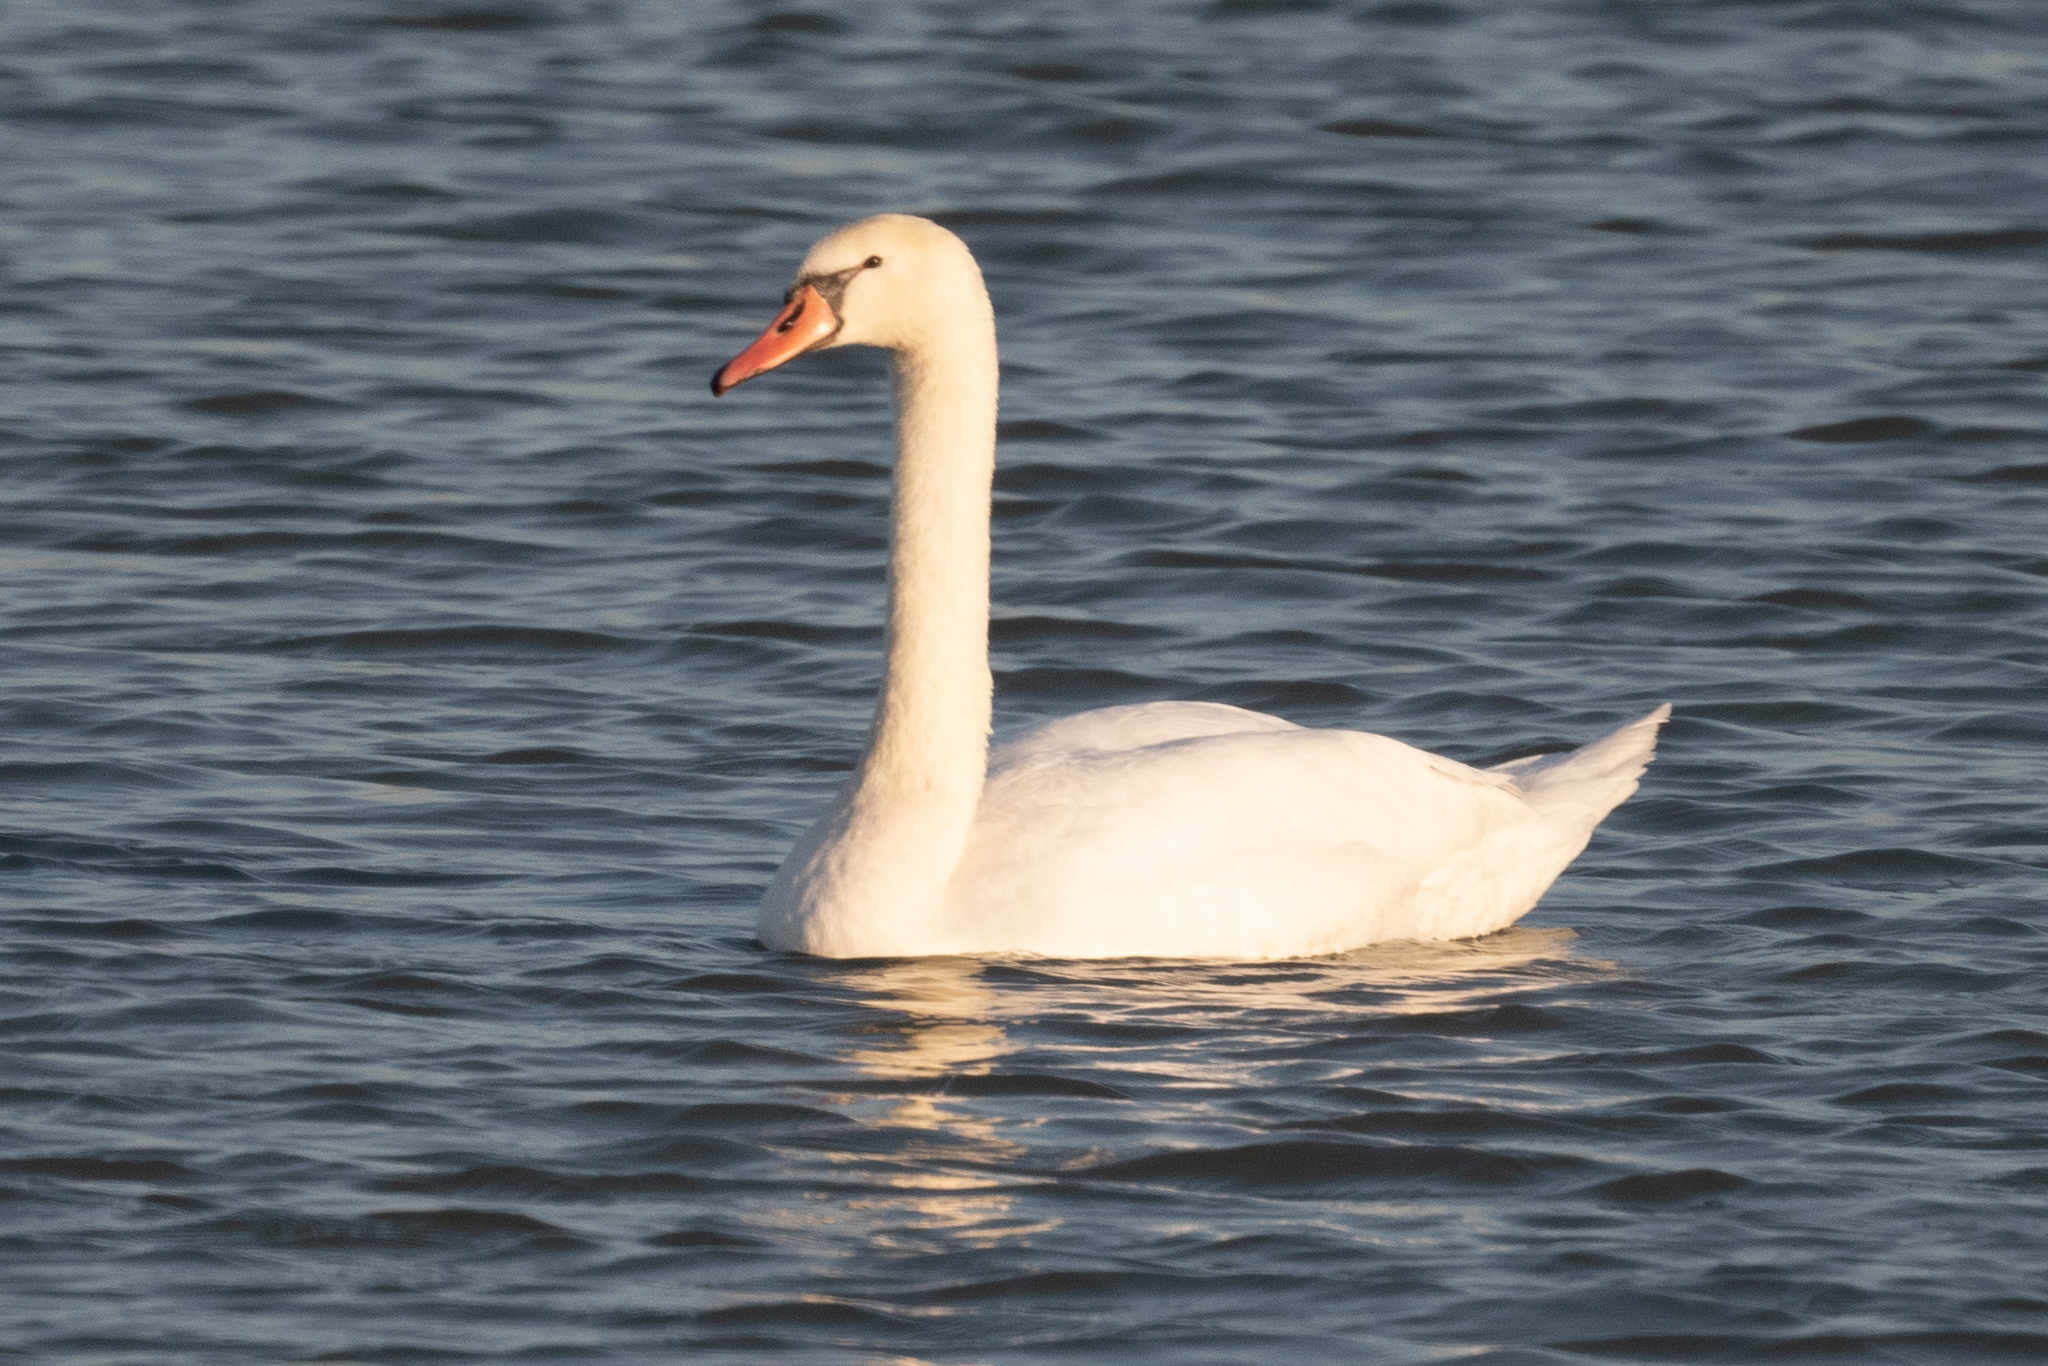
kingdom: Animalia
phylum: Chordata
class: Aves
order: Anseriformes
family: Anatidae
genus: Cygnus
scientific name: Cygnus olor
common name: Mute swan
